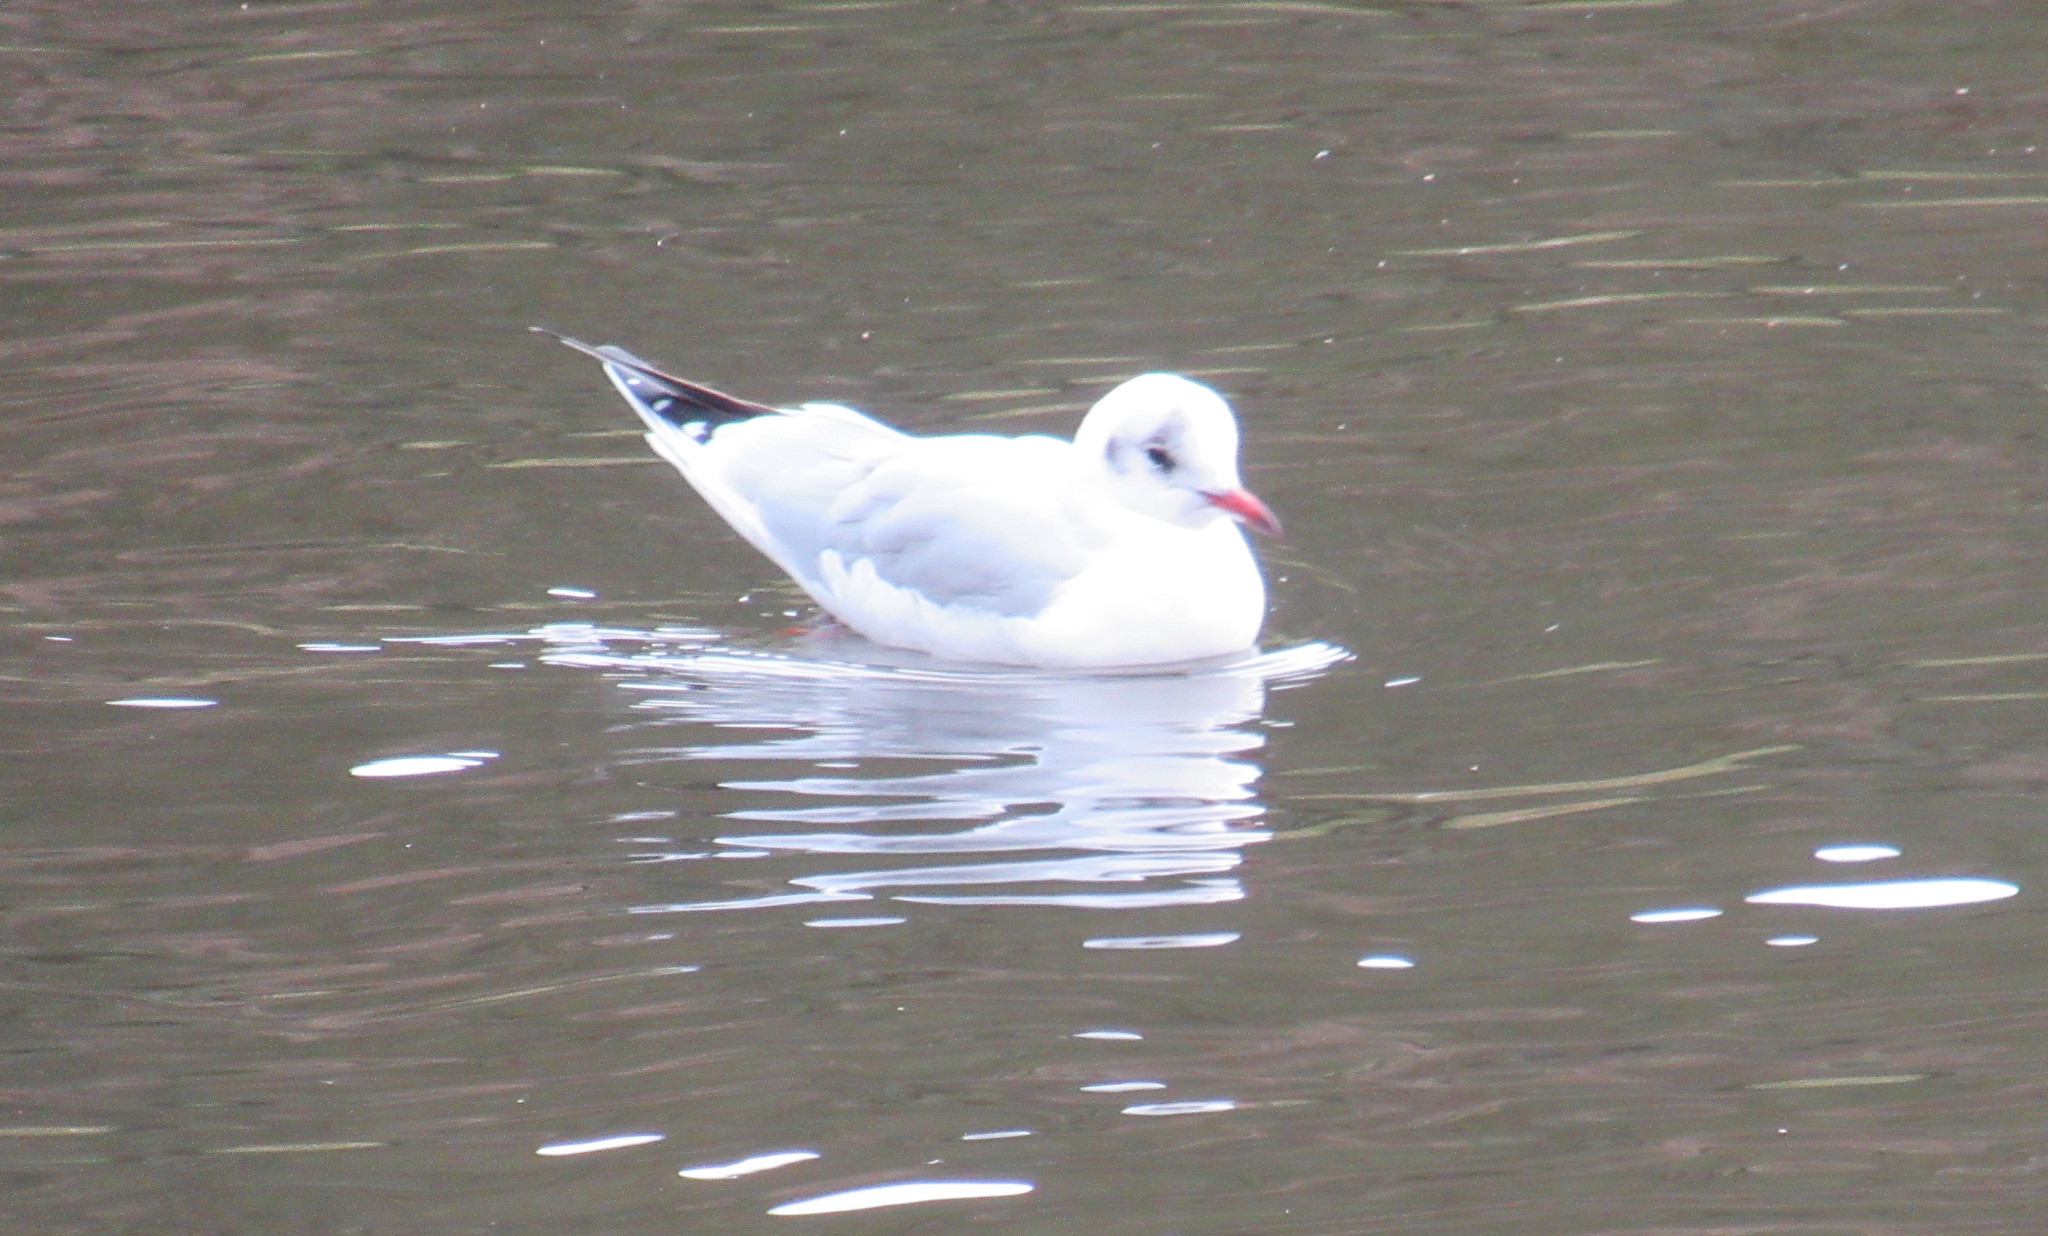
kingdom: Animalia
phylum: Chordata
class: Aves
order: Charadriiformes
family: Laridae
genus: Chroicocephalus
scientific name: Chroicocephalus ridibundus
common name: Black-headed gull
